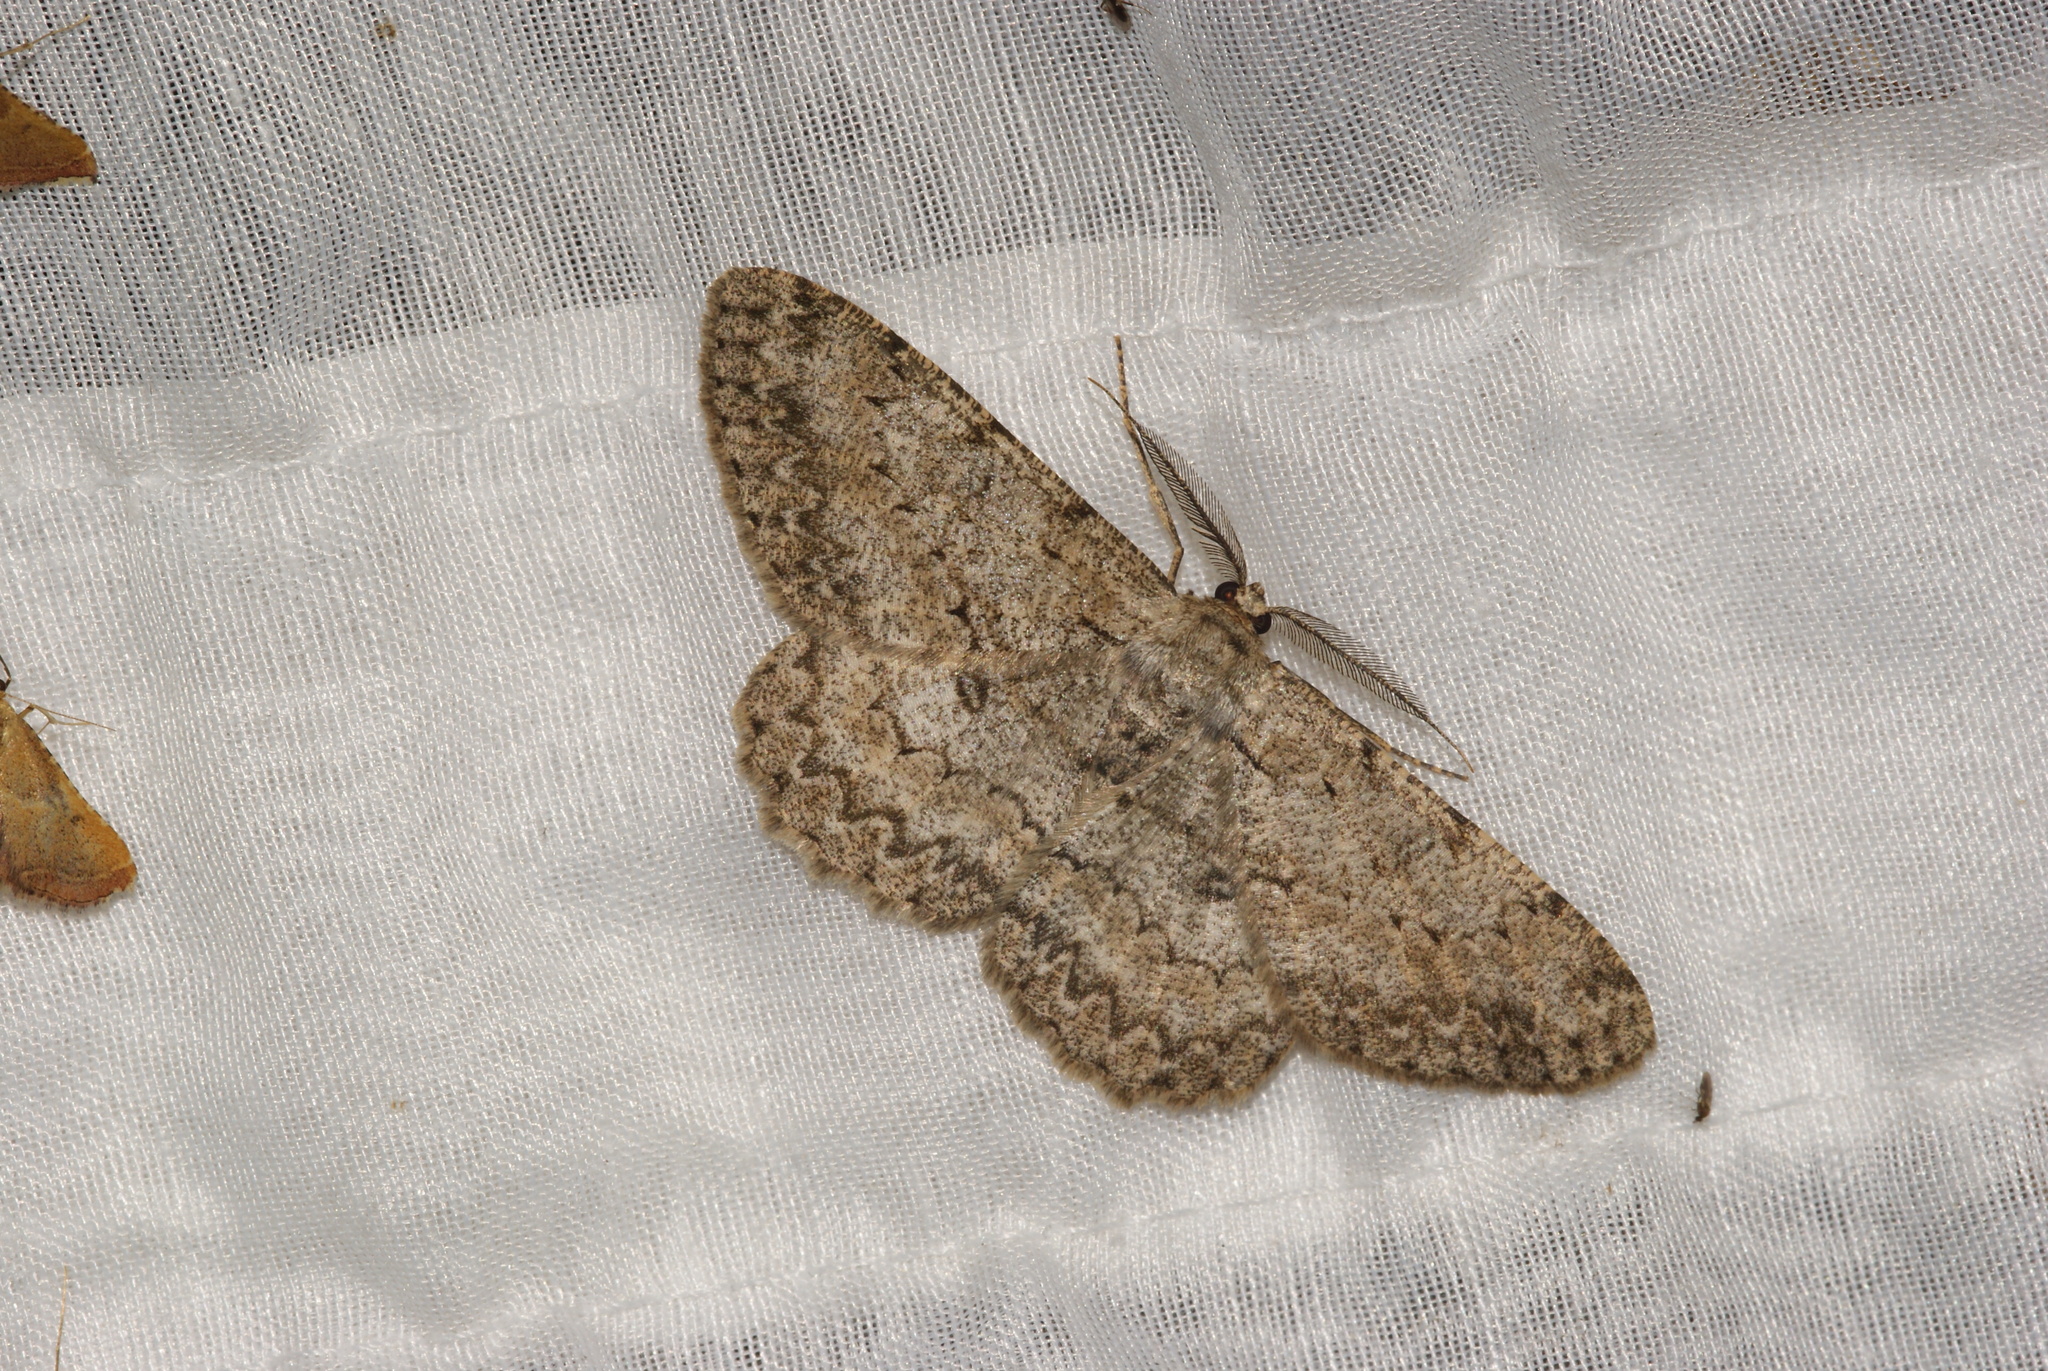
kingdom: Animalia
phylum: Arthropoda
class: Insecta
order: Lepidoptera
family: Geometridae
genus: Hypomecis
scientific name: Hypomecis punctinalis
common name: Pale oak beauty
